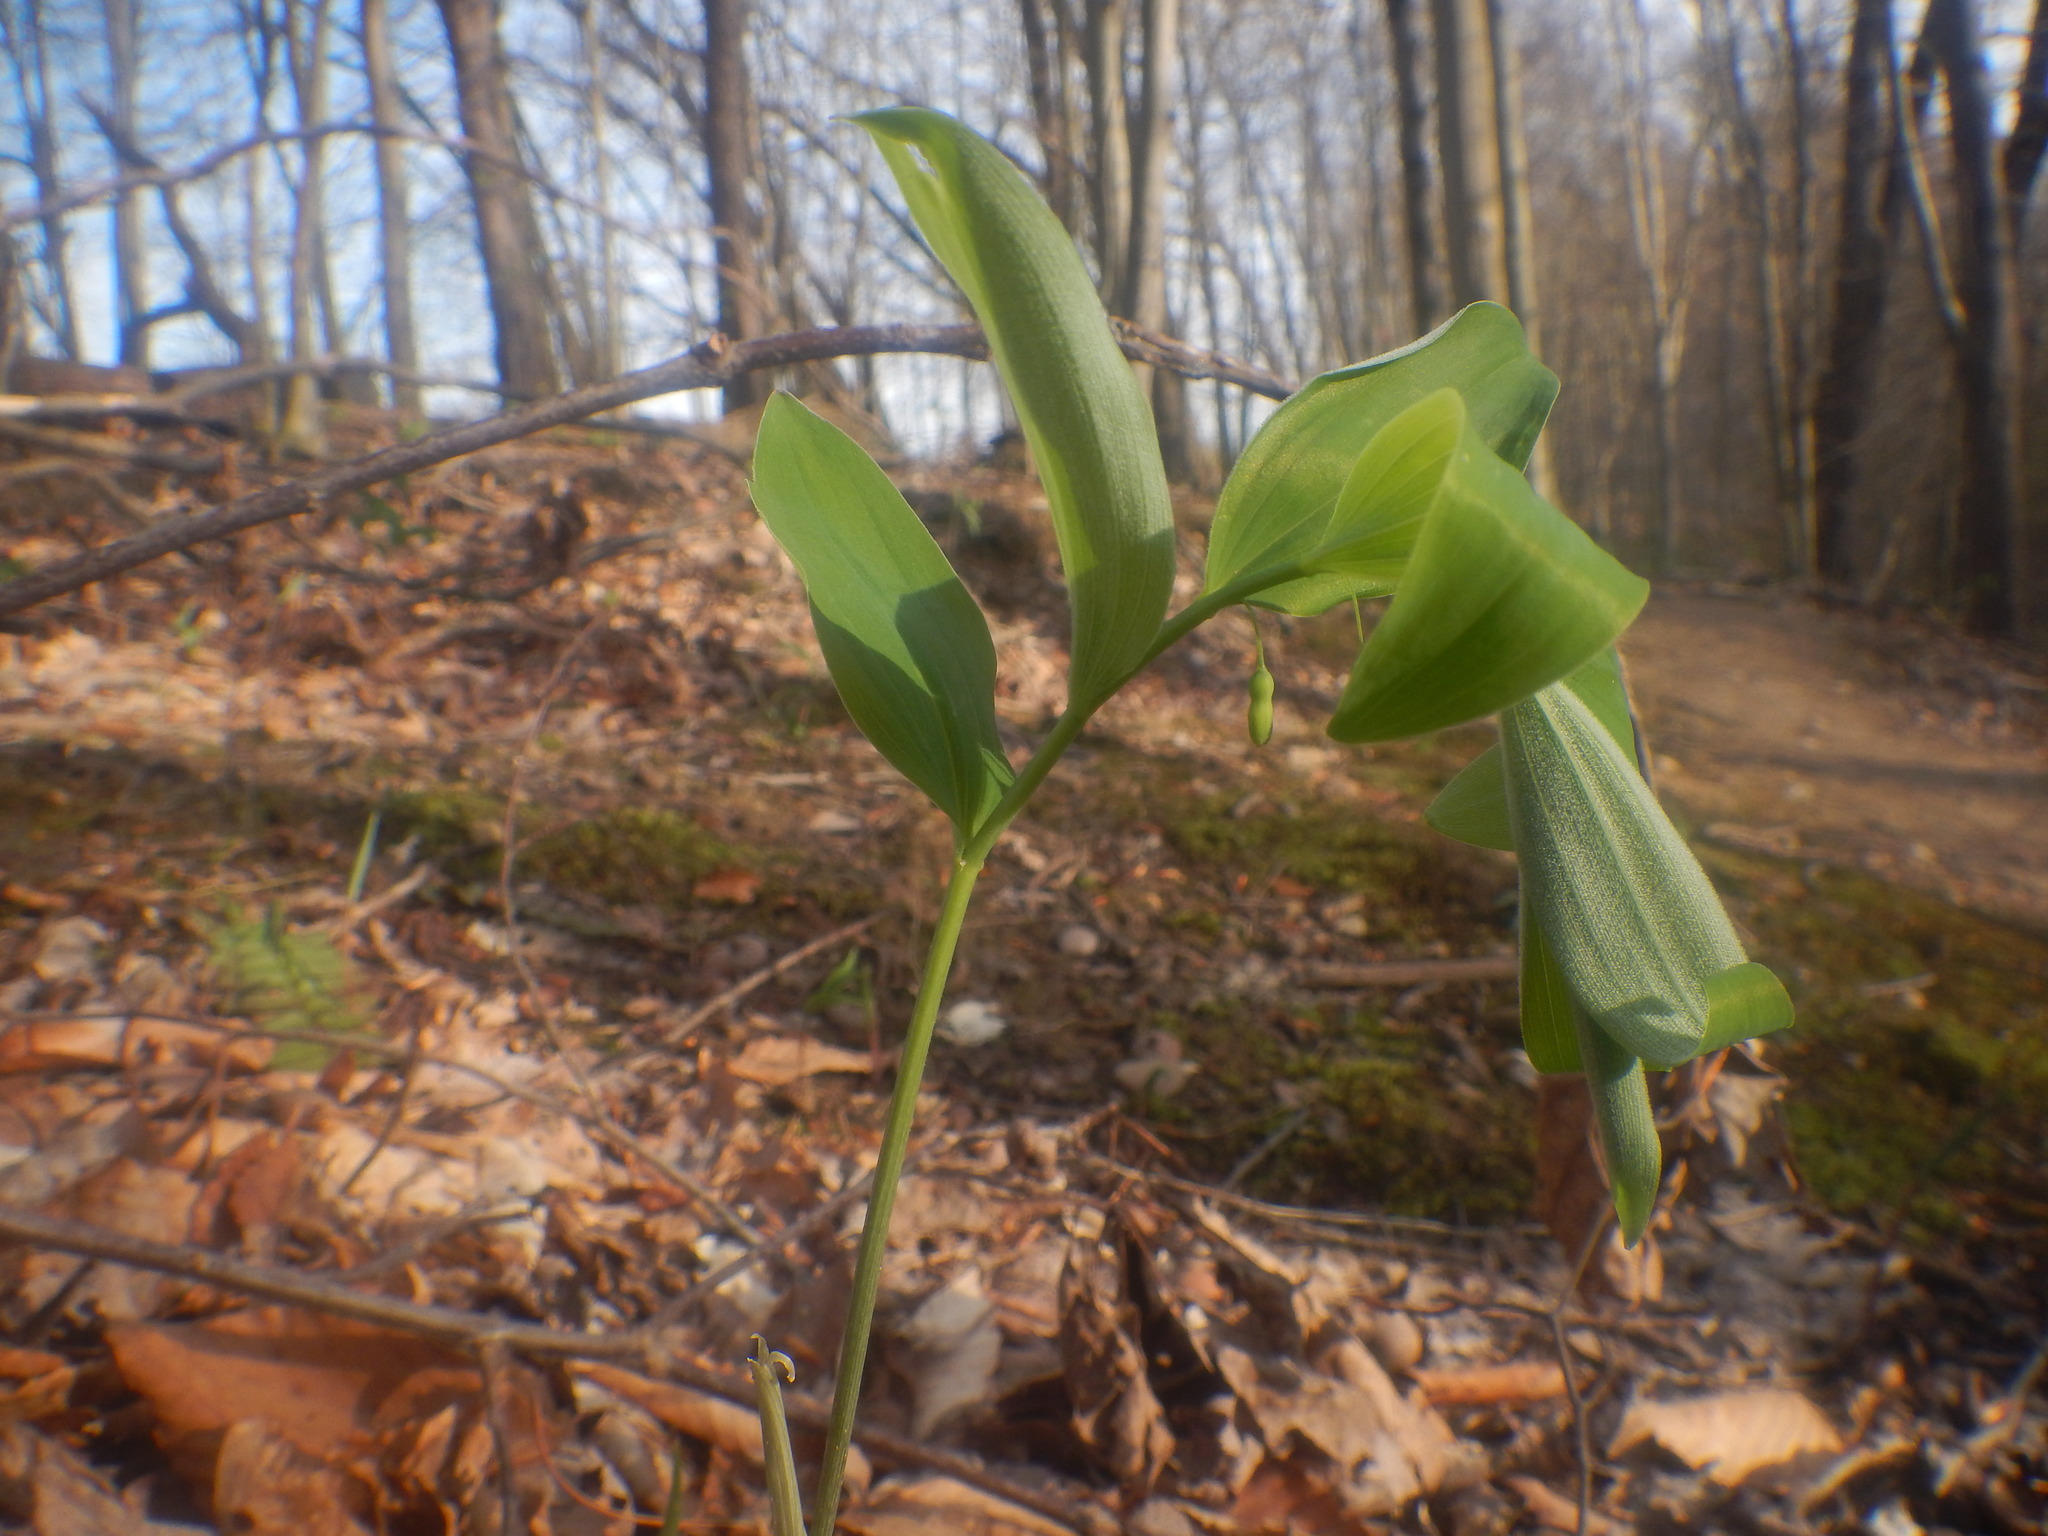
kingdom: Plantae
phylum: Tracheophyta
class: Liliopsida
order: Asparagales
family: Asparagaceae
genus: Polygonatum
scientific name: Polygonatum pubescens
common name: Downy solomon's seal
